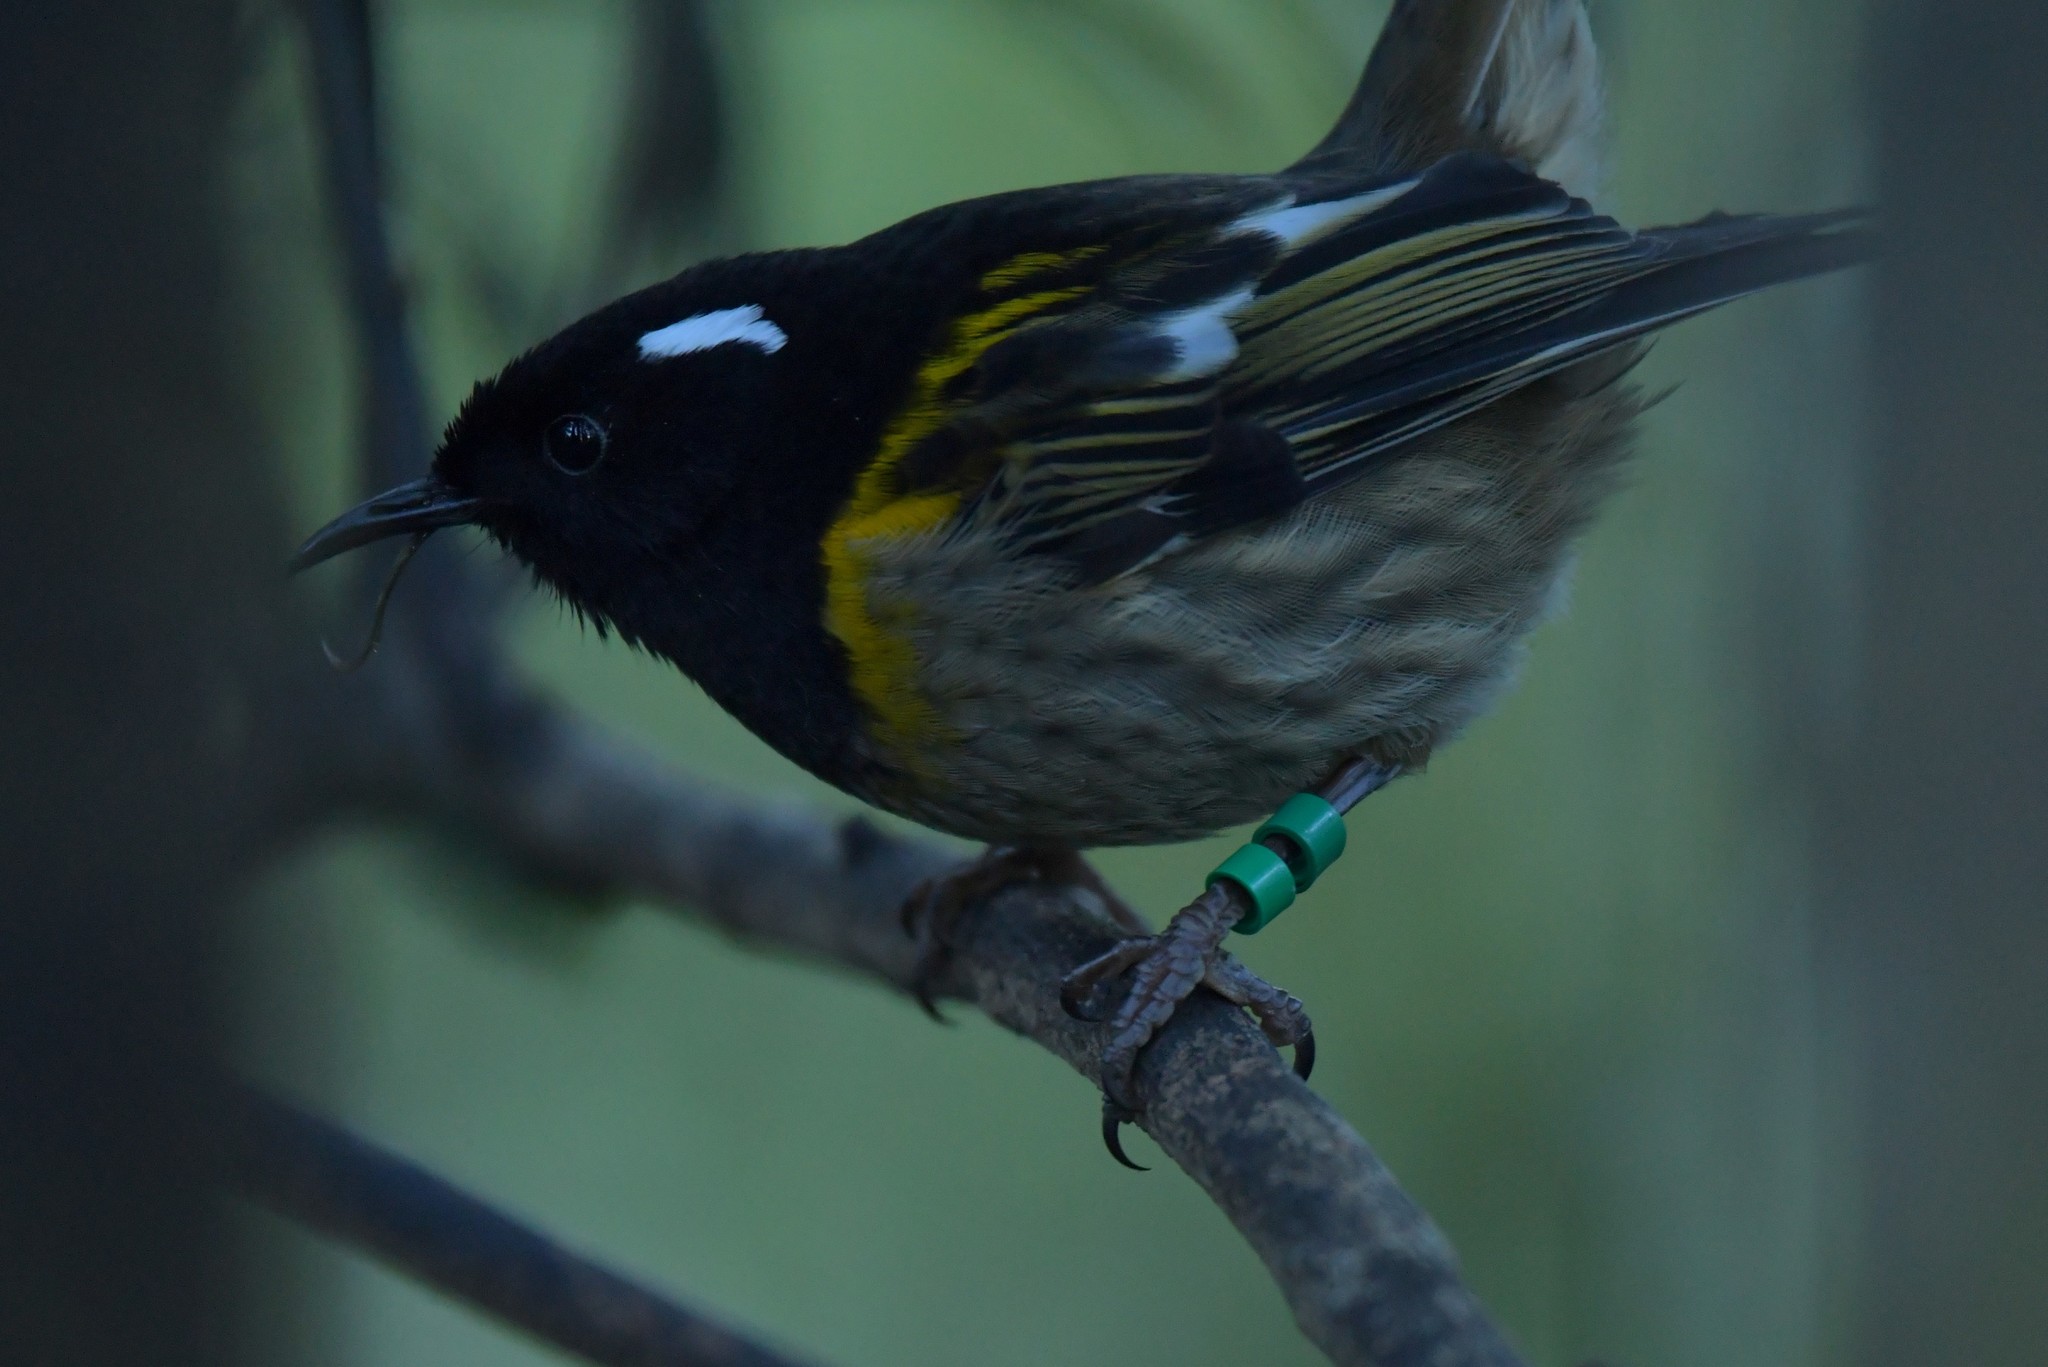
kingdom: Animalia
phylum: Chordata
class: Aves
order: Passeriformes
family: Notiomystidae
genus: Notiomystis
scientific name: Notiomystis cincta
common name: Stitchbird
